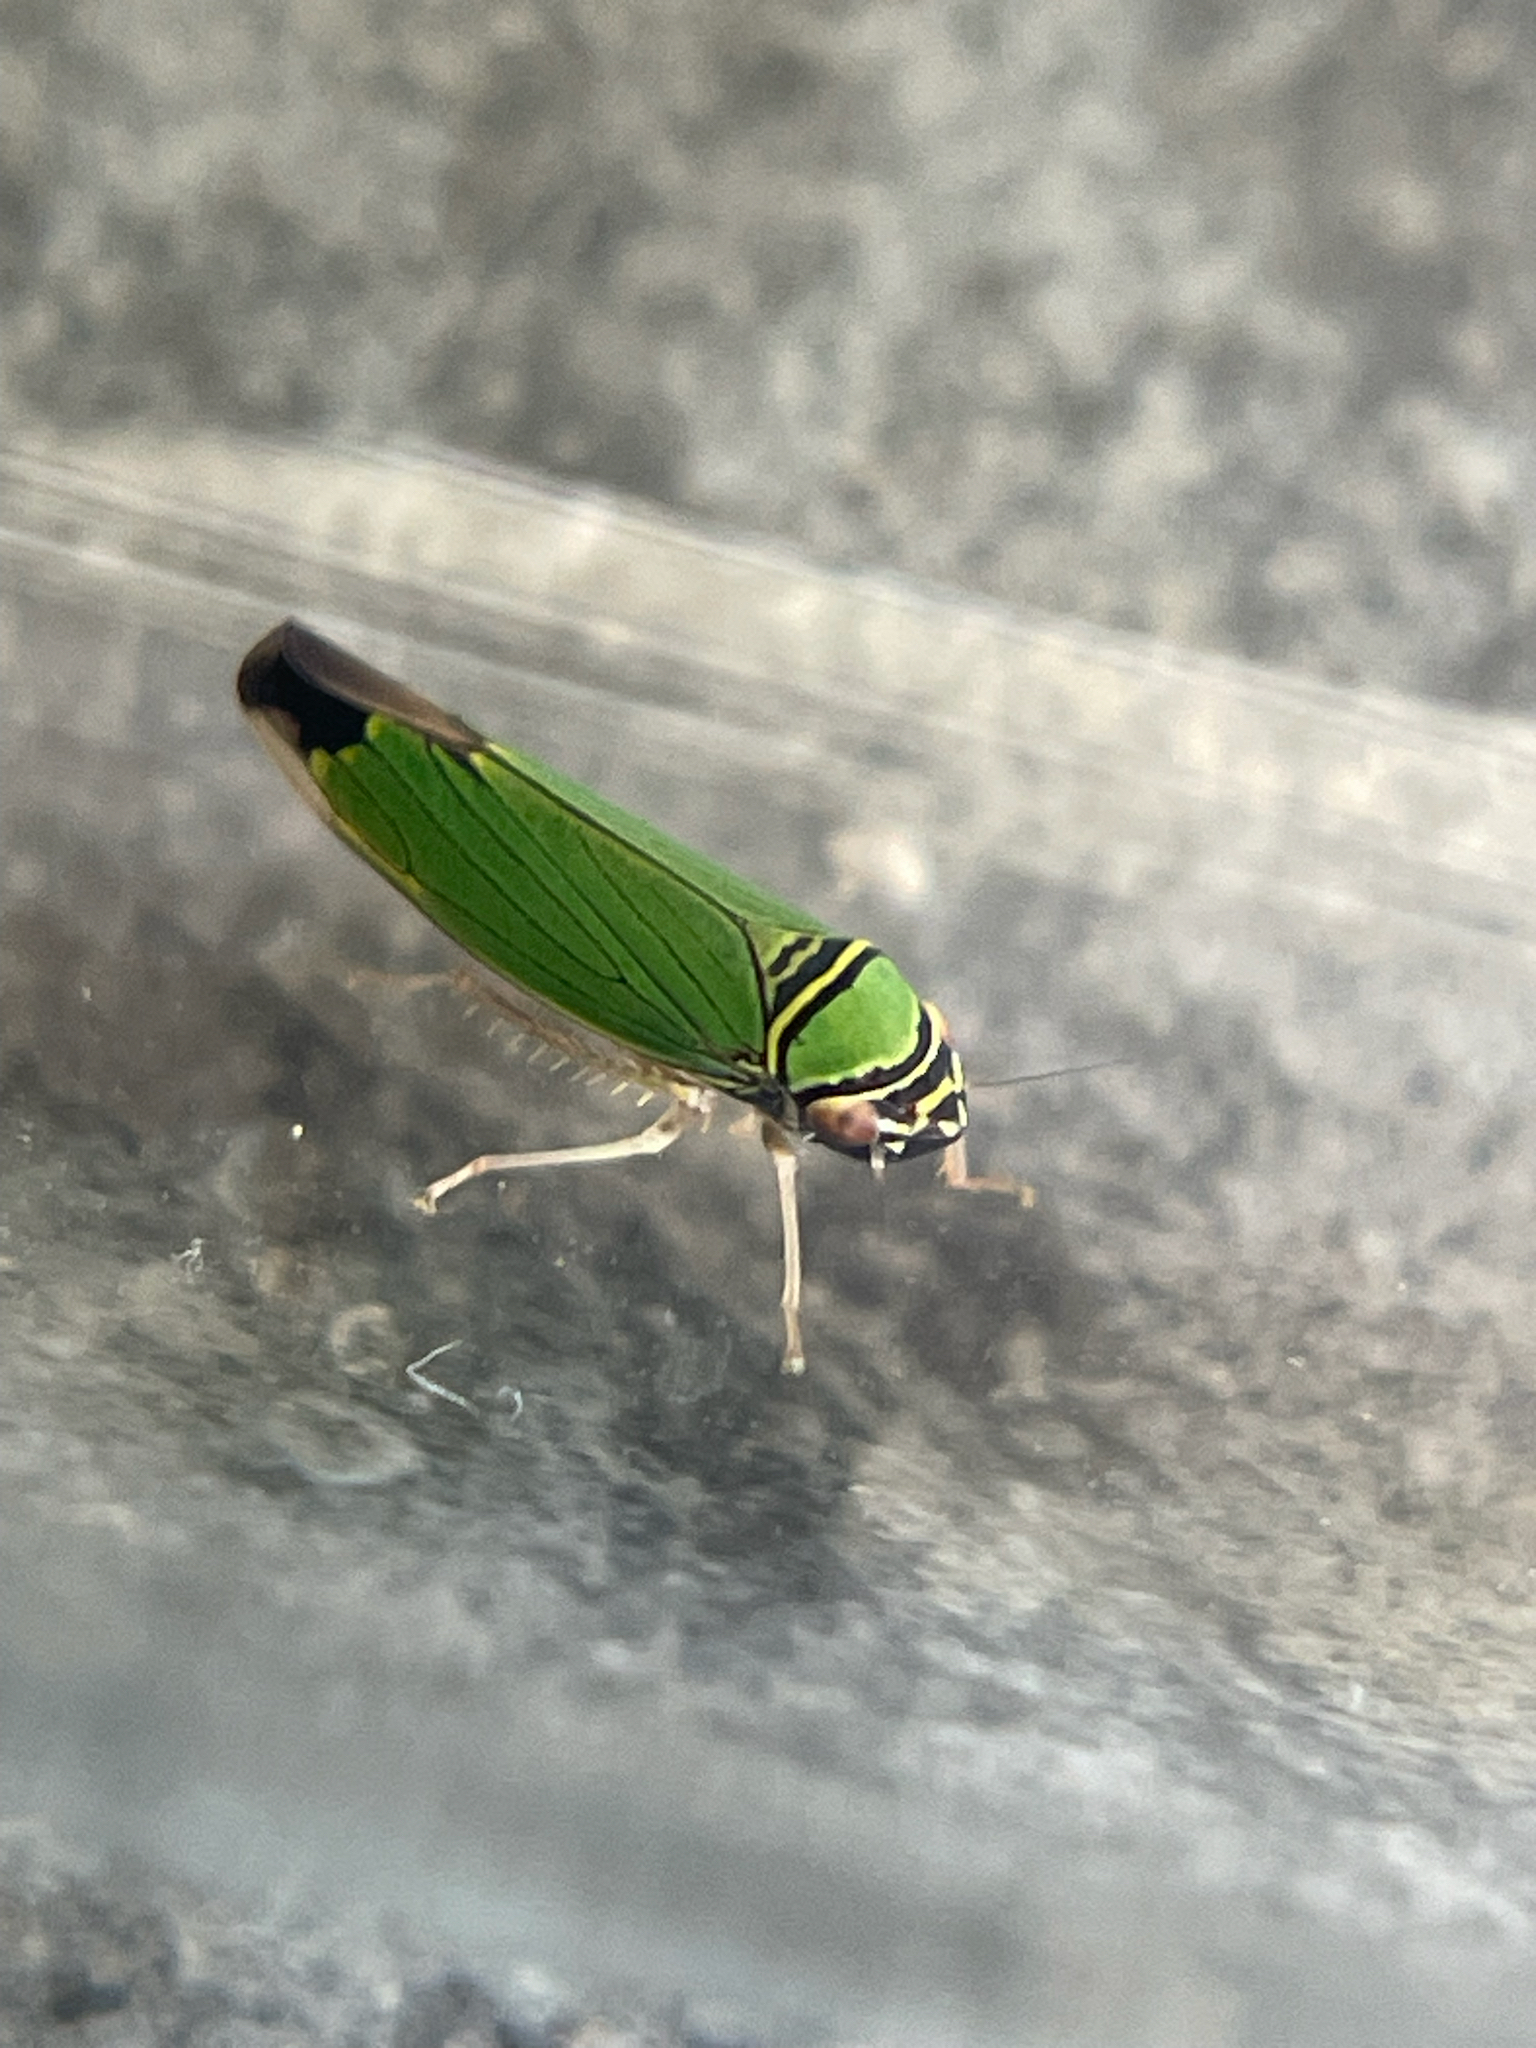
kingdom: Animalia
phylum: Arthropoda
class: Insecta
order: Hemiptera
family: Cicadellidae
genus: Tylozygus
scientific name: Tylozygus geometricus
